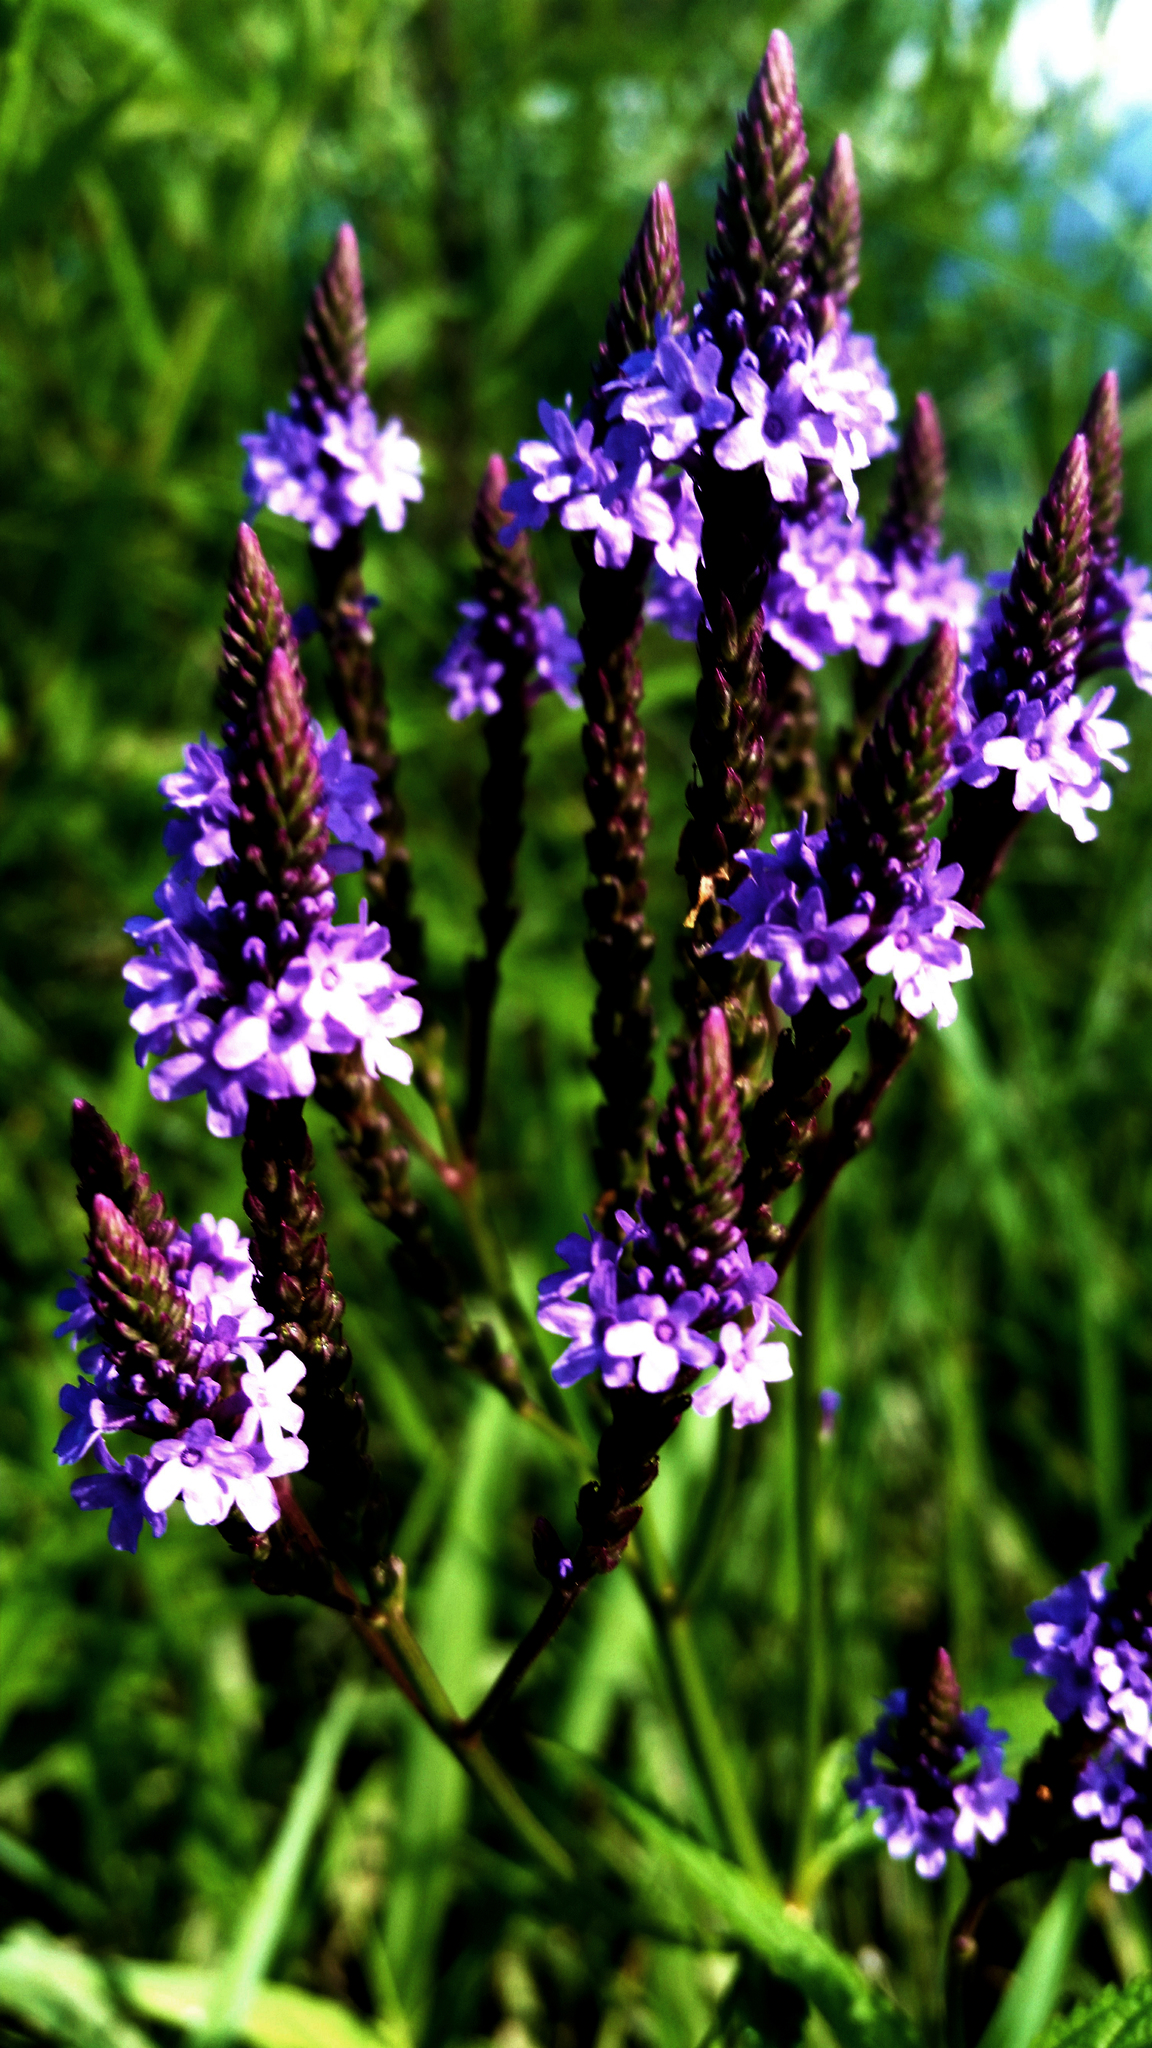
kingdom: Plantae
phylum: Tracheophyta
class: Magnoliopsida
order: Lamiales
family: Verbenaceae
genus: Verbena
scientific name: Verbena hastata
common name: American blue vervain
